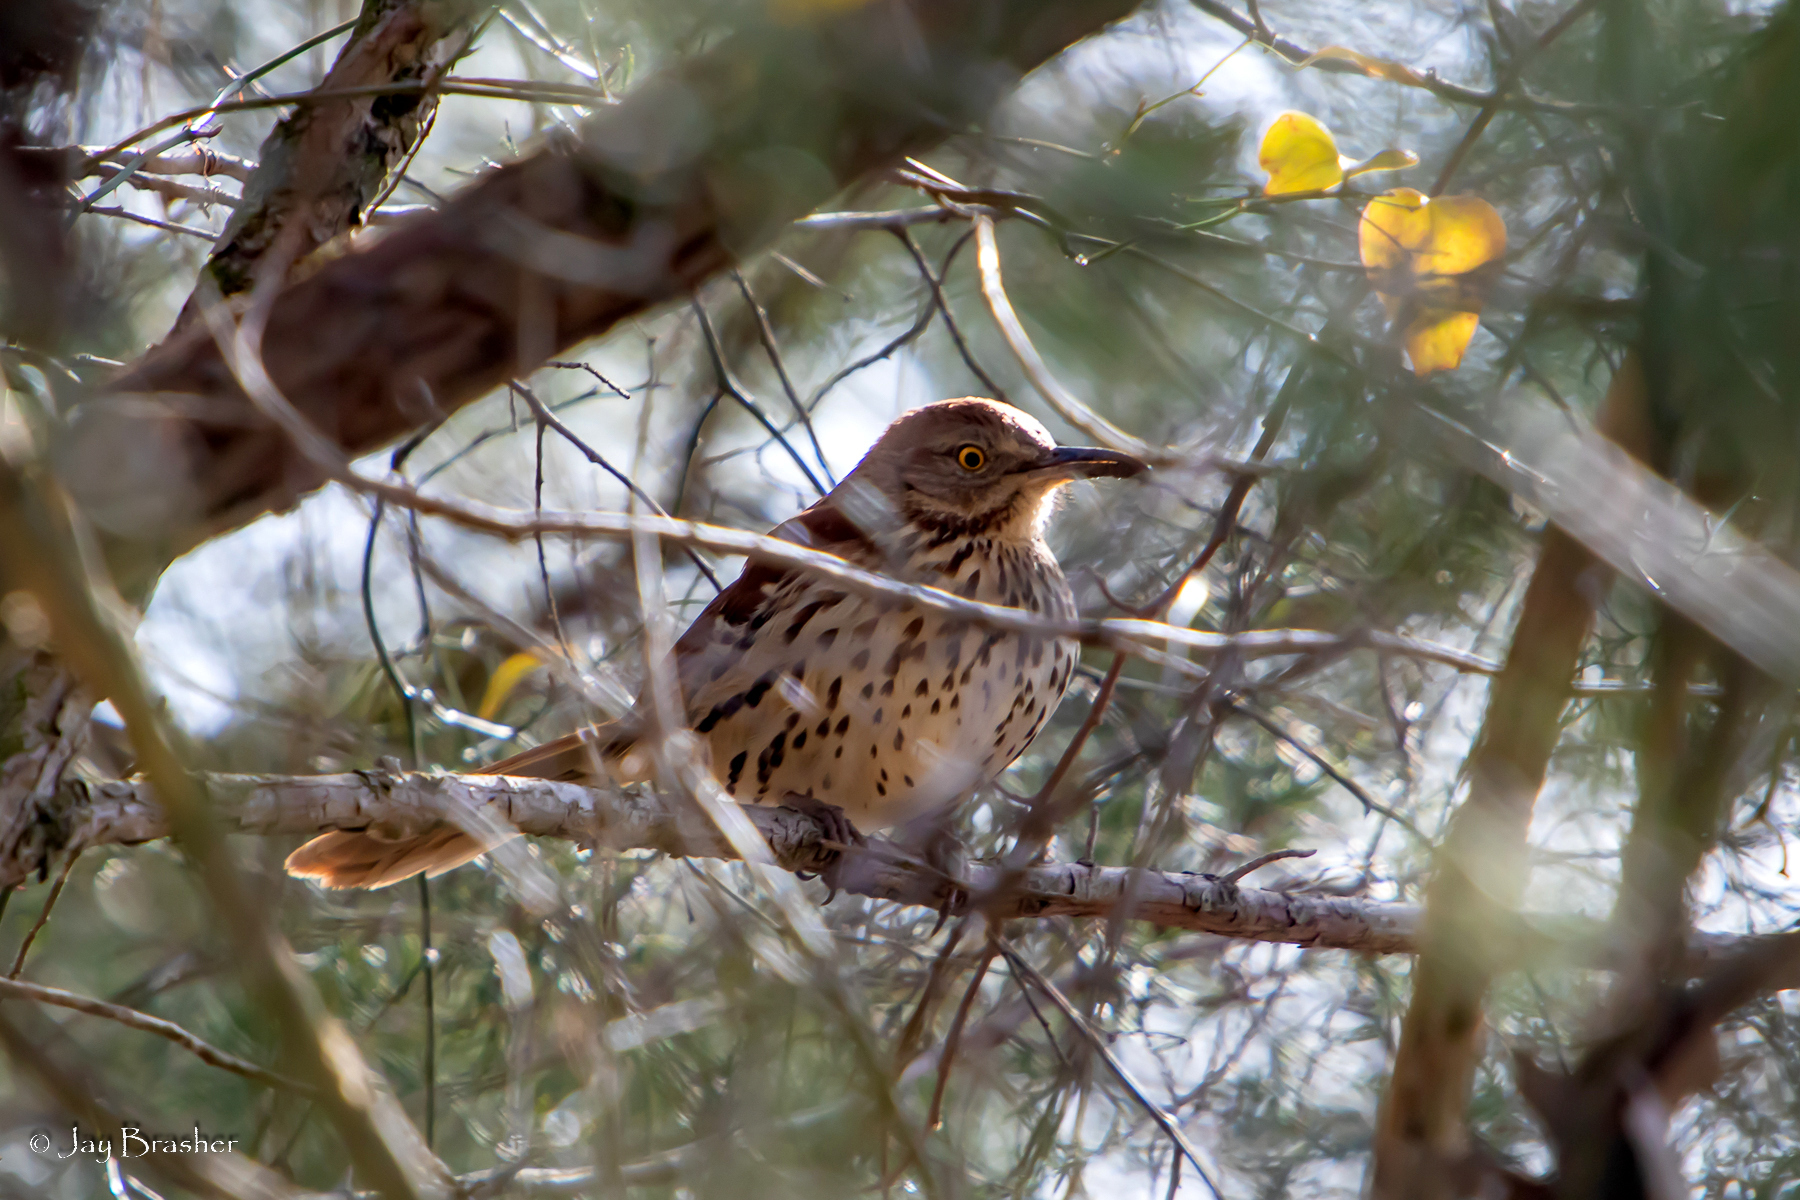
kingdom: Animalia
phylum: Chordata
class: Aves
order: Passeriformes
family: Mimidae
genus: Toxostoma
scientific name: Toxostoma rufum
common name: Brown thrasher
